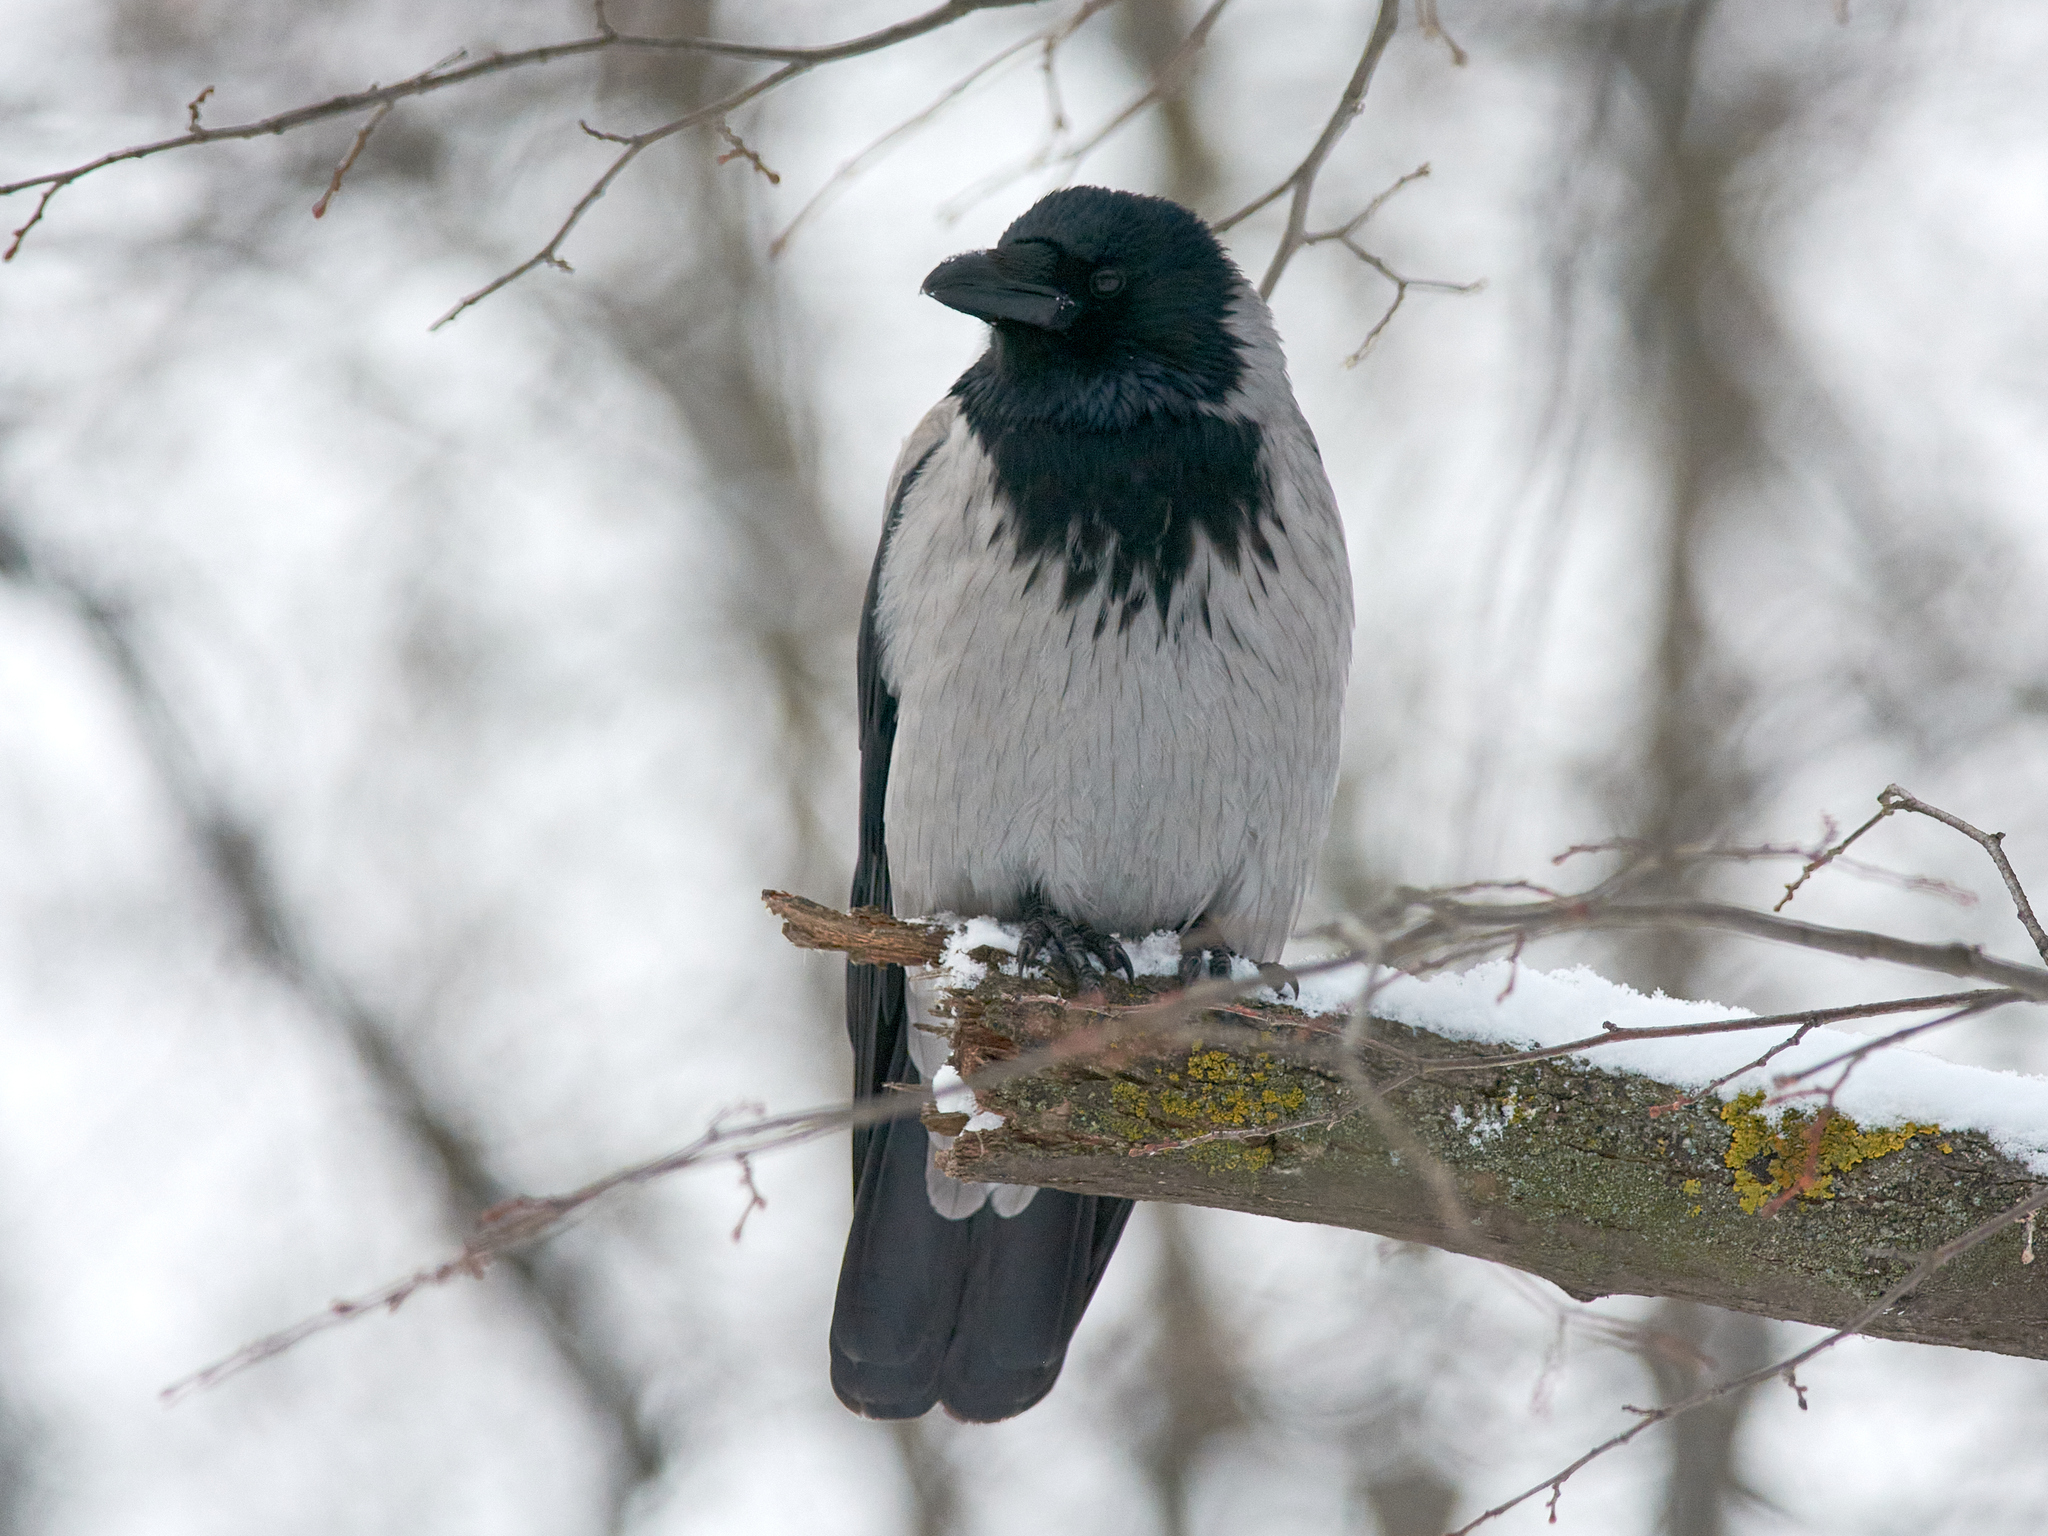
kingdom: Animalia
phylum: Chordata
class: Aves
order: Passeriformes
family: Corvidae
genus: Corvus
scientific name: Corvus cornix
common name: Hooded crow
